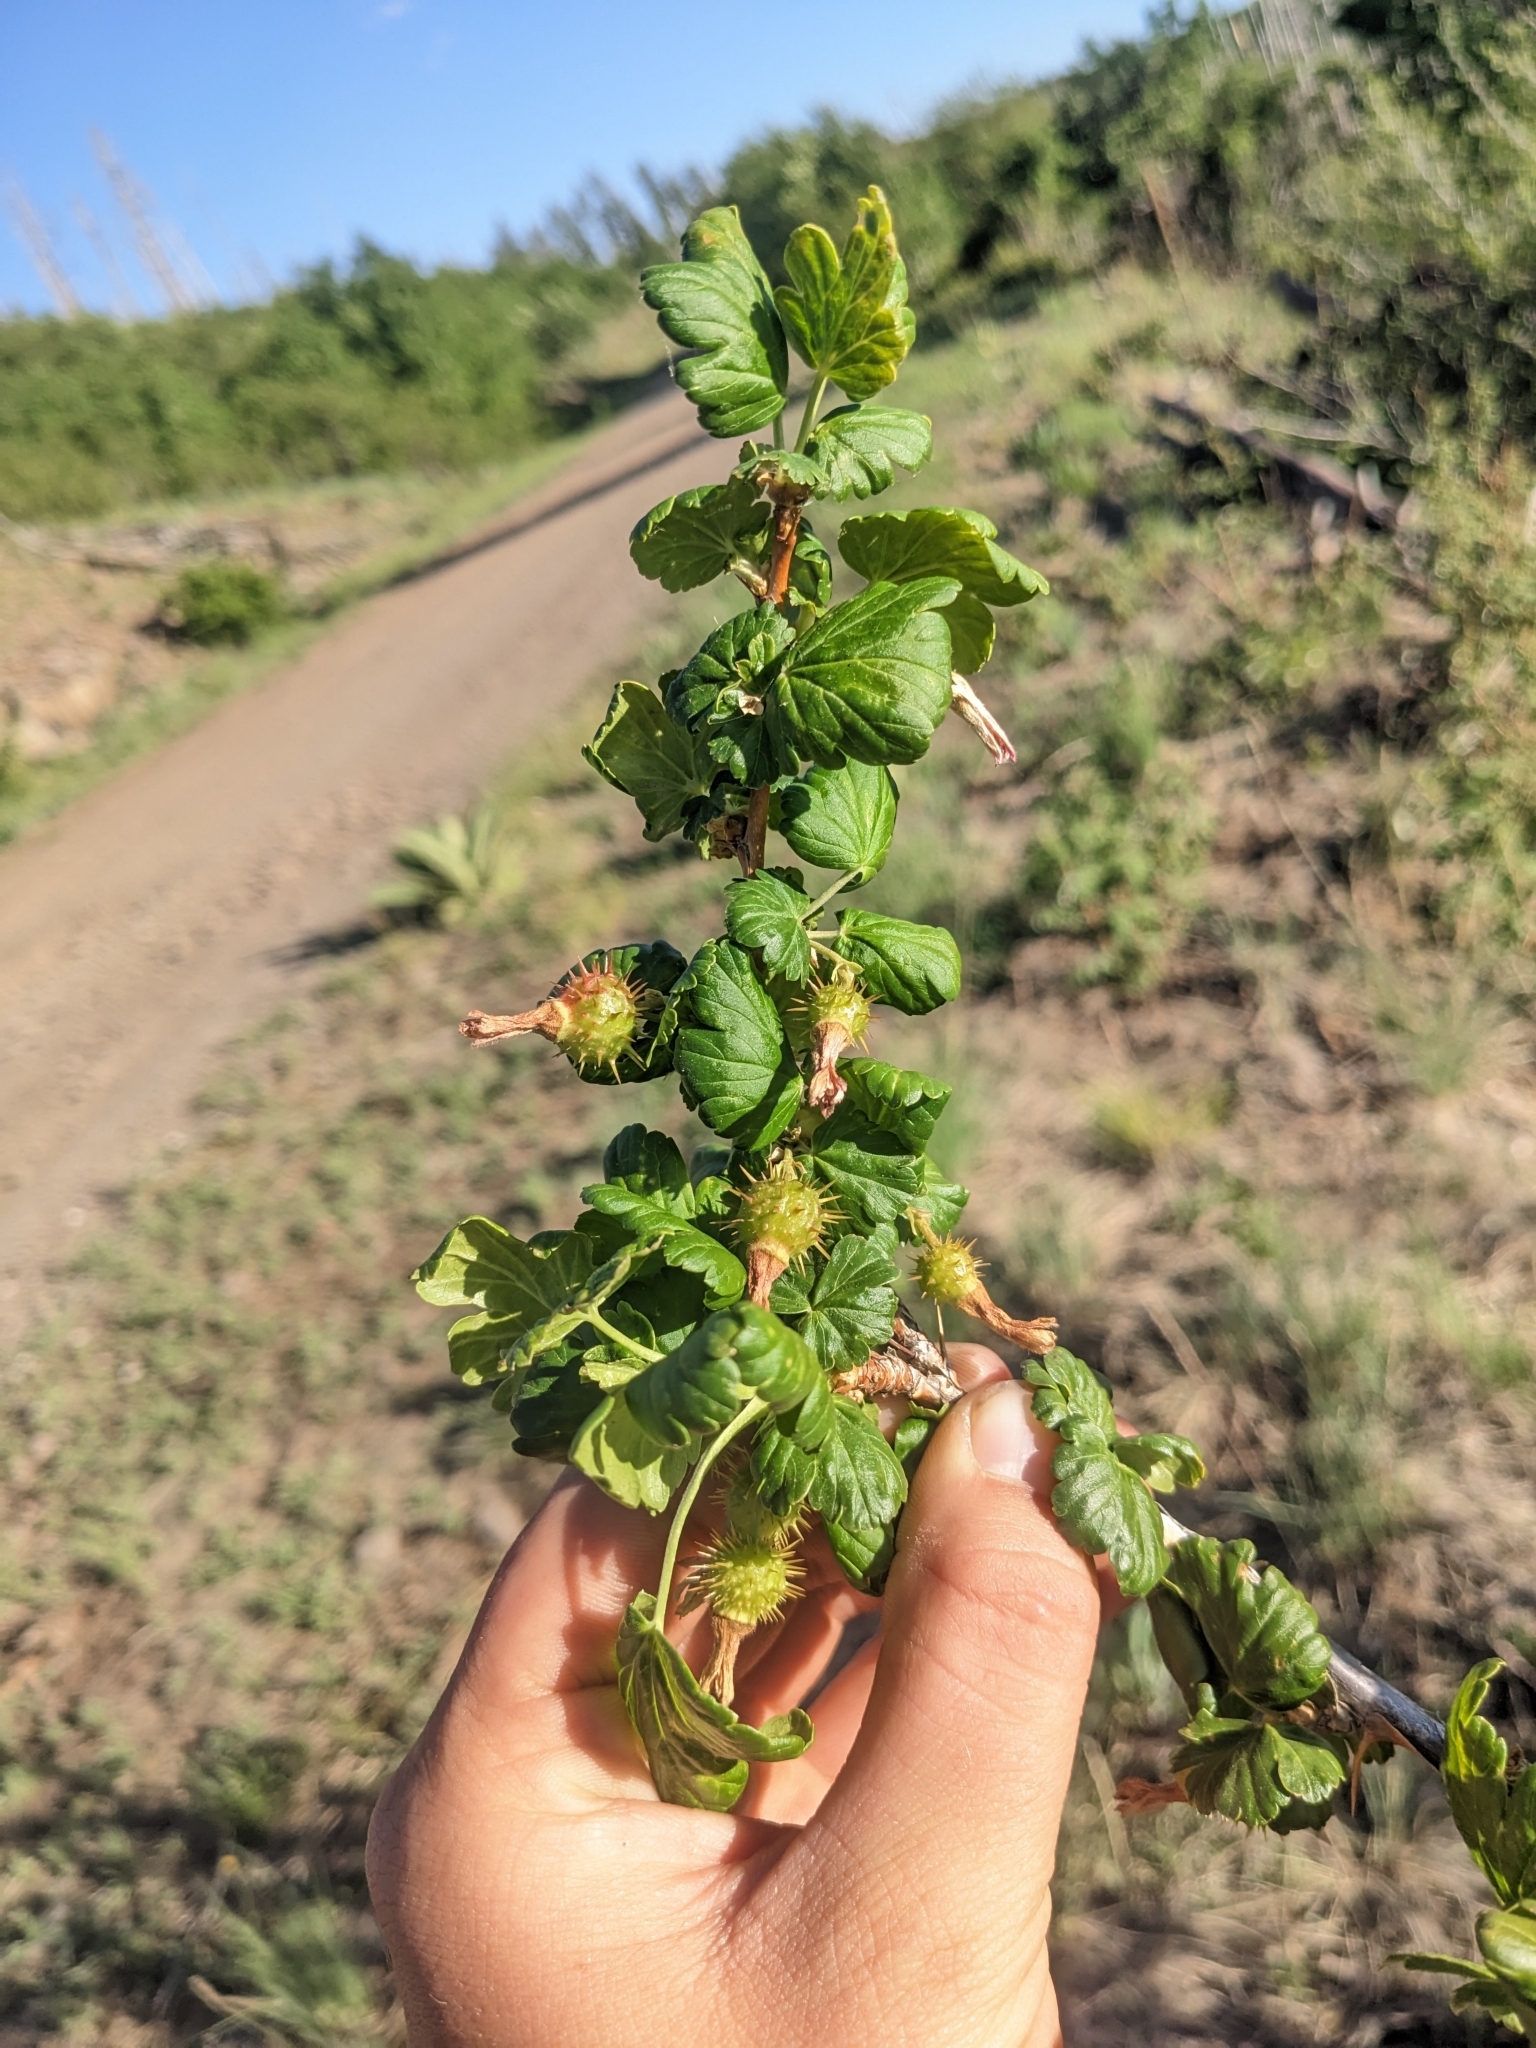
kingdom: Plantae
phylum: Tracheophyta
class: Magnoliopsida
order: Saxifragales
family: Grossulariaceae
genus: Ribes
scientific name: Ribes pinetorum
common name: Orange gooseberry
